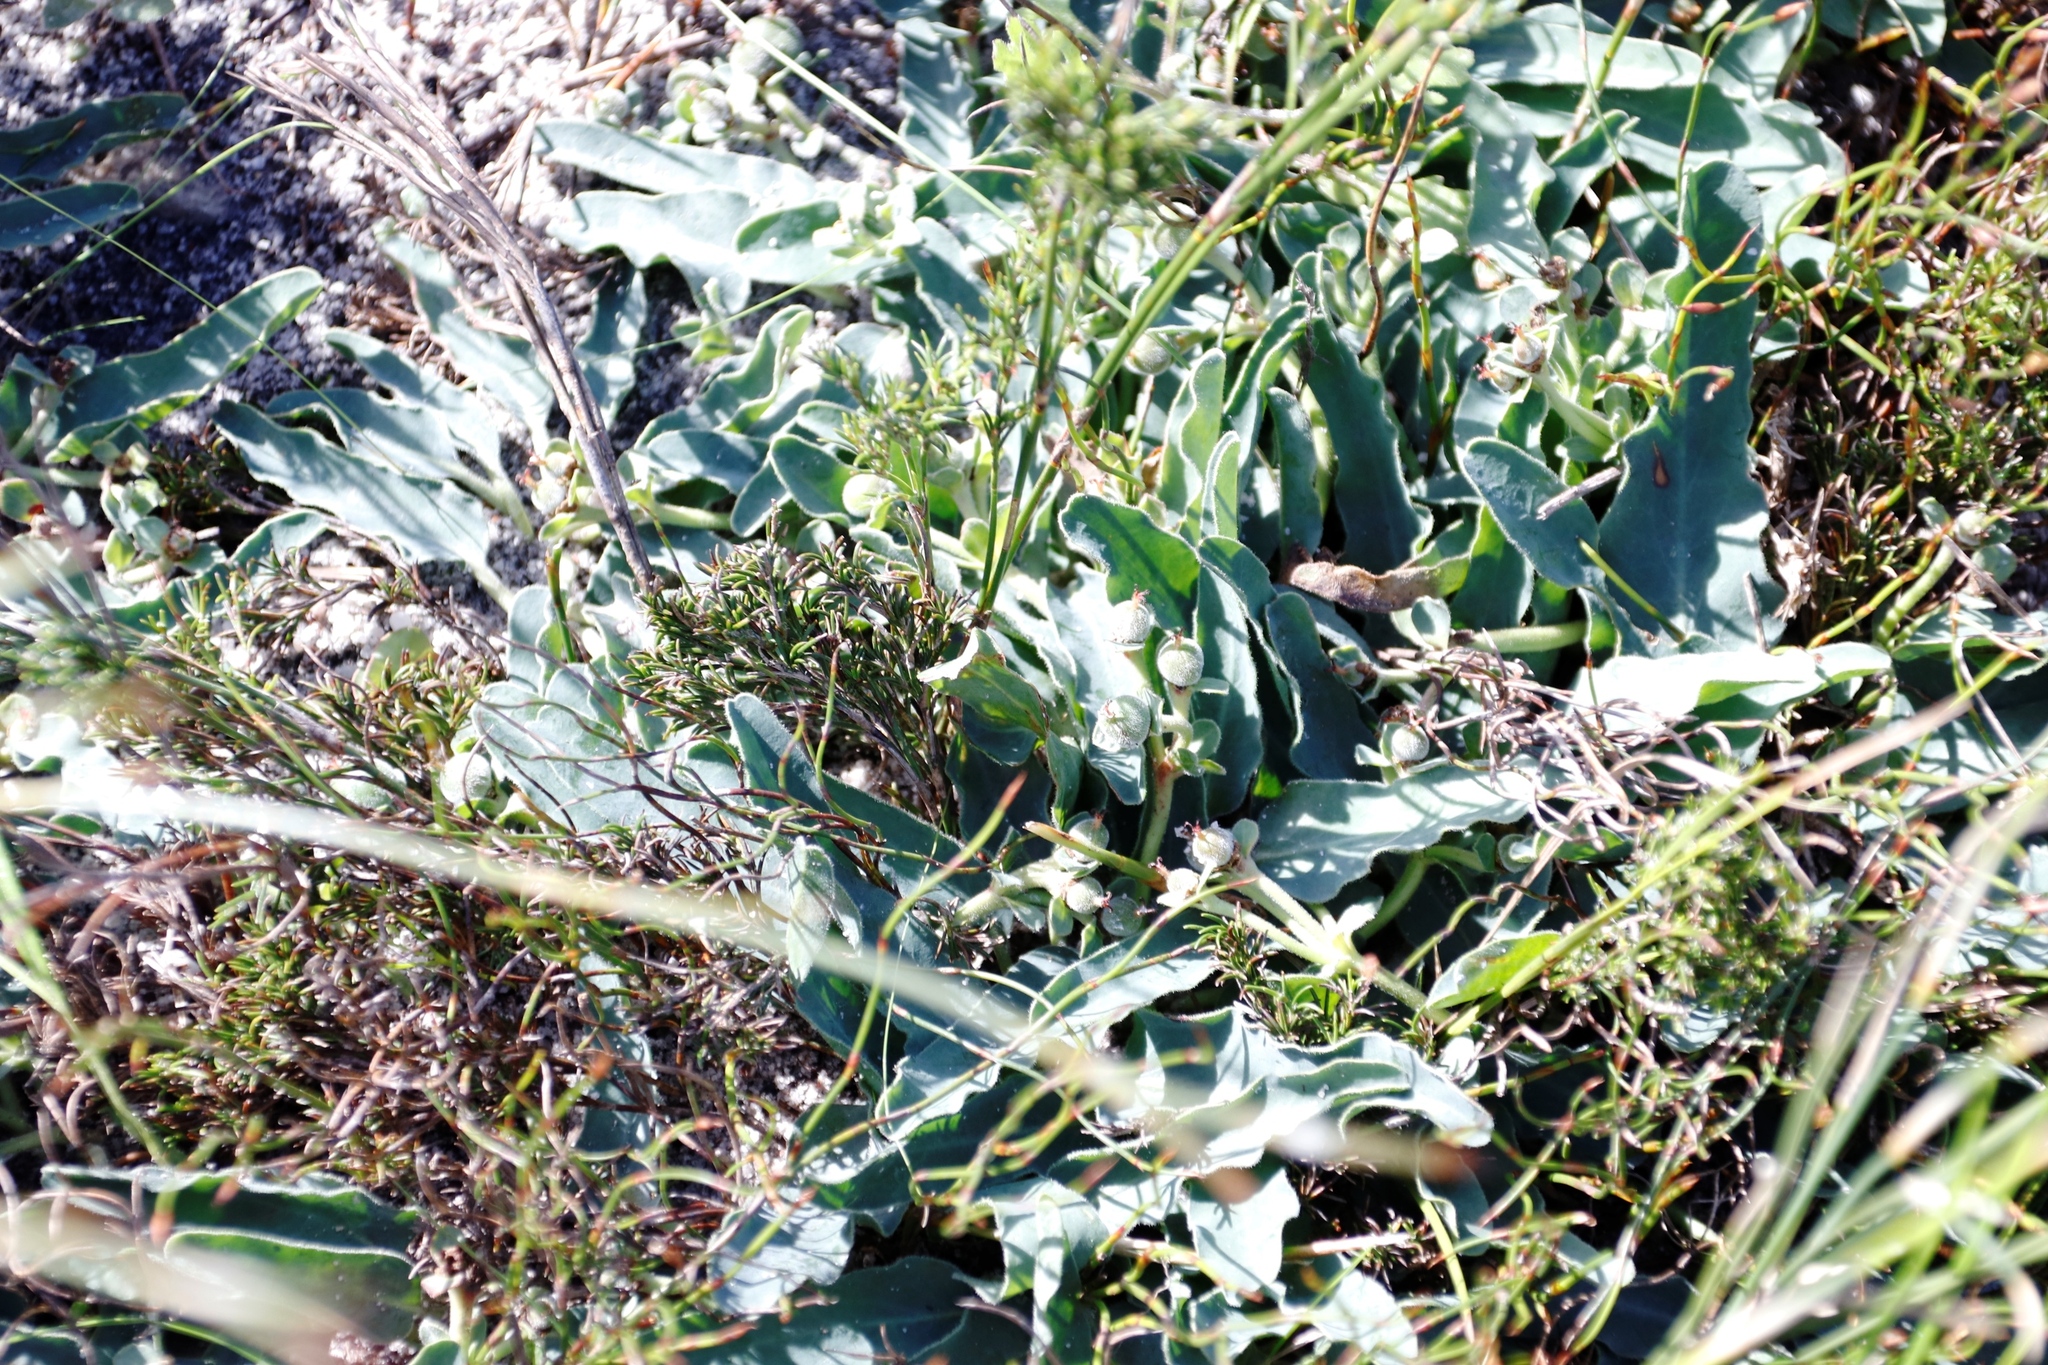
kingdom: Plantae
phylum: Tracheophyta
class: Magnoliopsida
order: Malpighiales
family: Euphorbiaceae
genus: Euphorbia
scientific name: Euphorbia tuberosa
